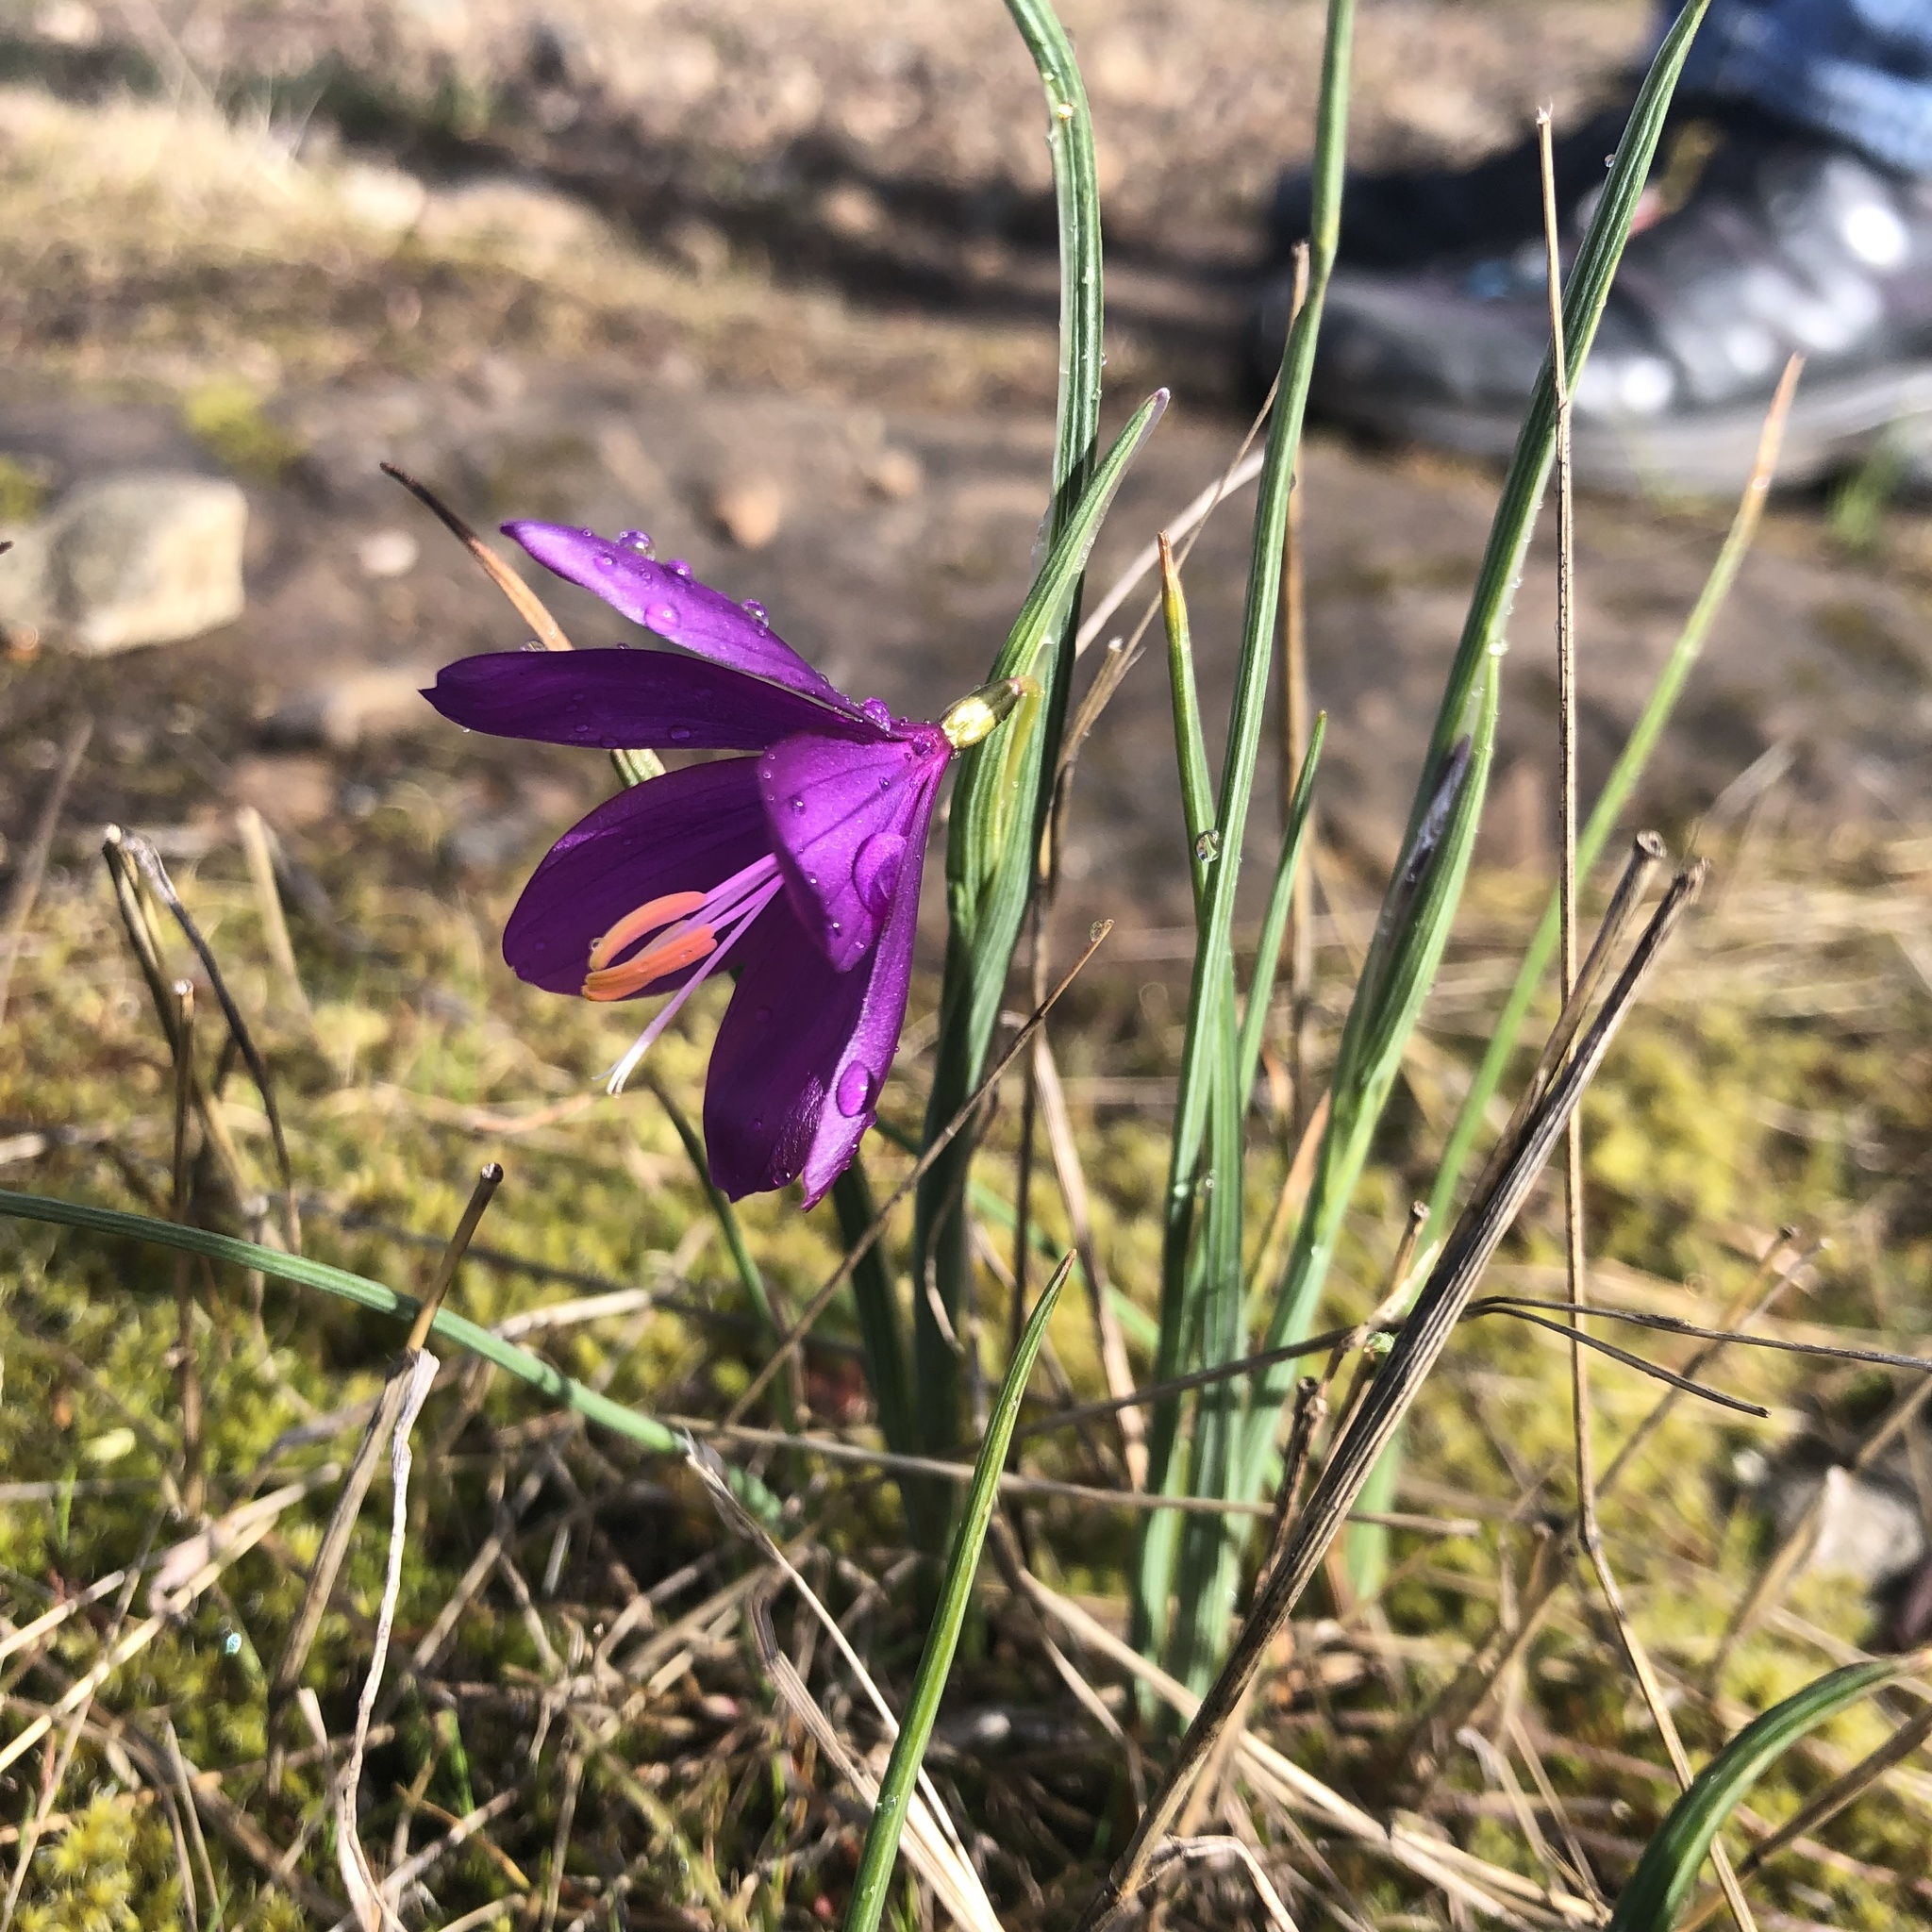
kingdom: Plantae
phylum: Tracheophyta
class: Liliopsida
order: Asparagales
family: Iridaceae
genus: Olsynium
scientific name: Olsynium douglasii
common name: Douglas' grasswidow
